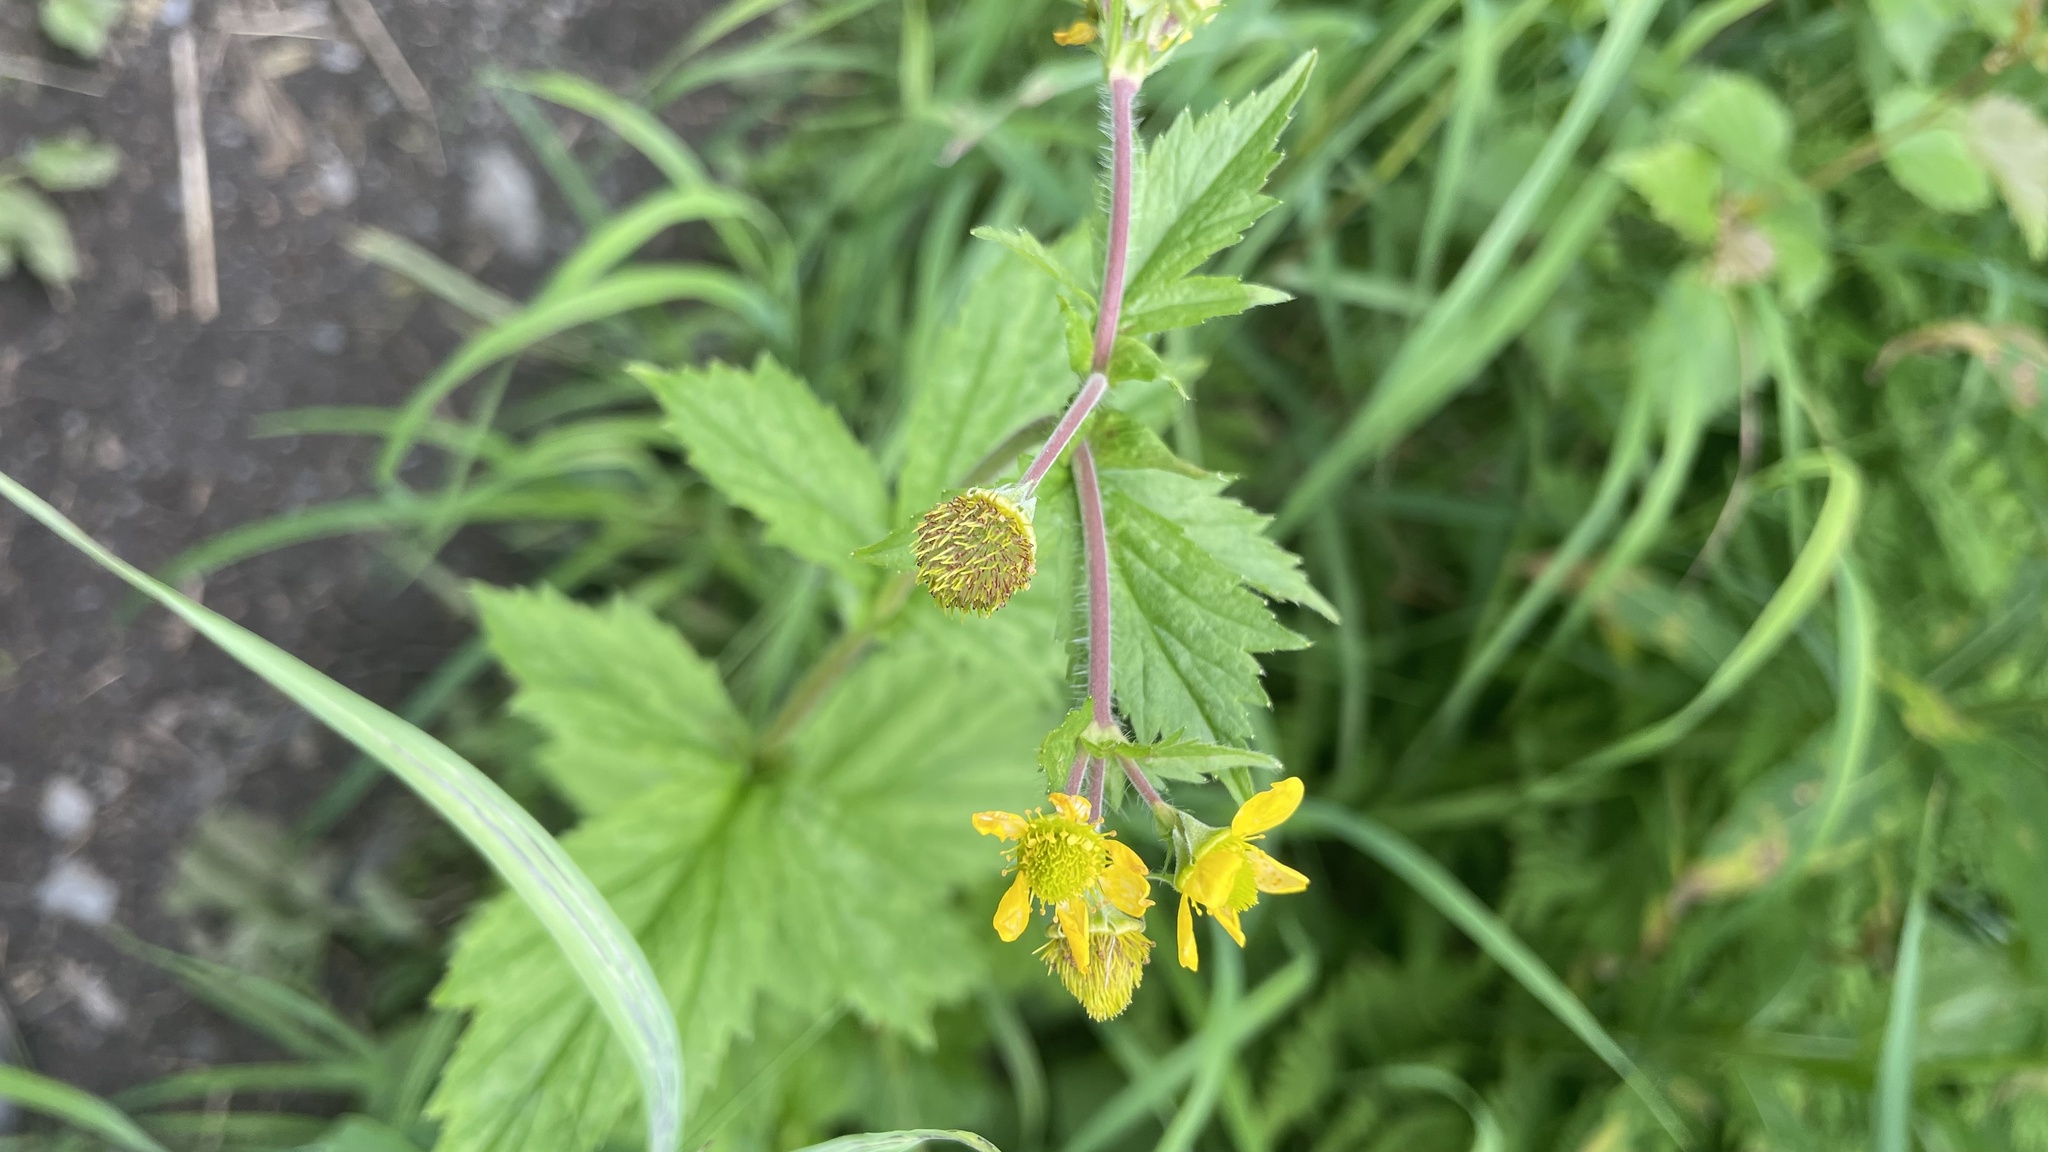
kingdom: Plantae
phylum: Tracheophyta
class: Magnoliopsida
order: Rosales
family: Rosaceae
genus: Geum
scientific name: Geum macrophyllum
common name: Large-leaved avens
